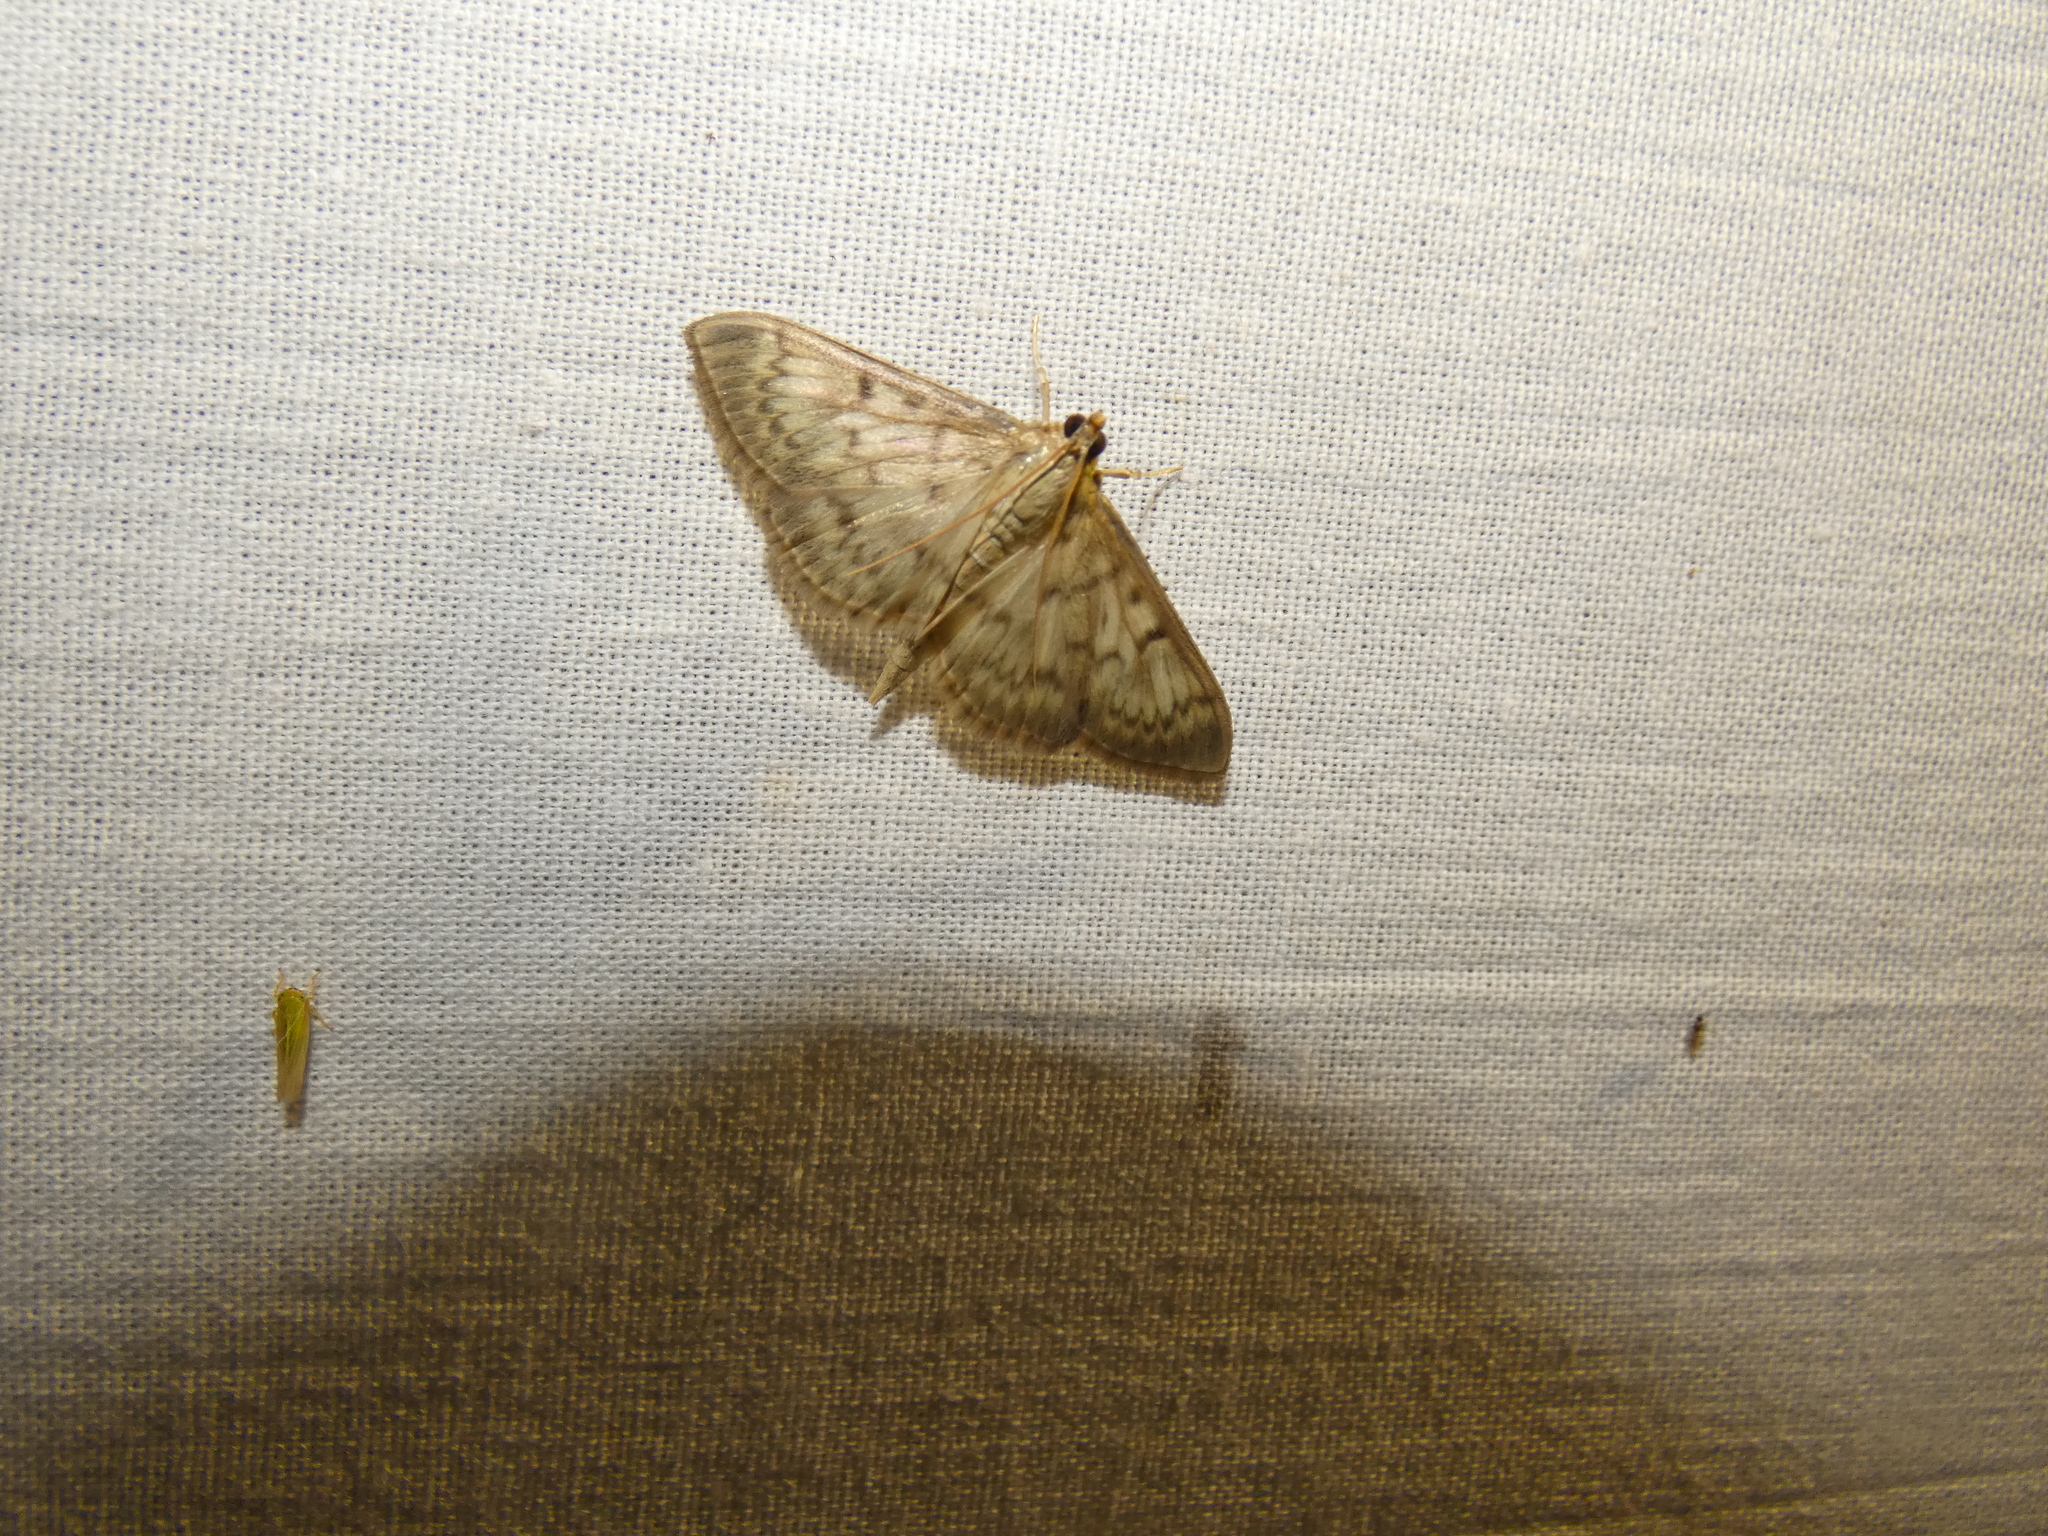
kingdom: Animalia
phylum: Arthropoda
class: Insecta
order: Lepidoptera
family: Crambidae
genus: Patania
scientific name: Patania ruralis
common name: Mother of pearl
